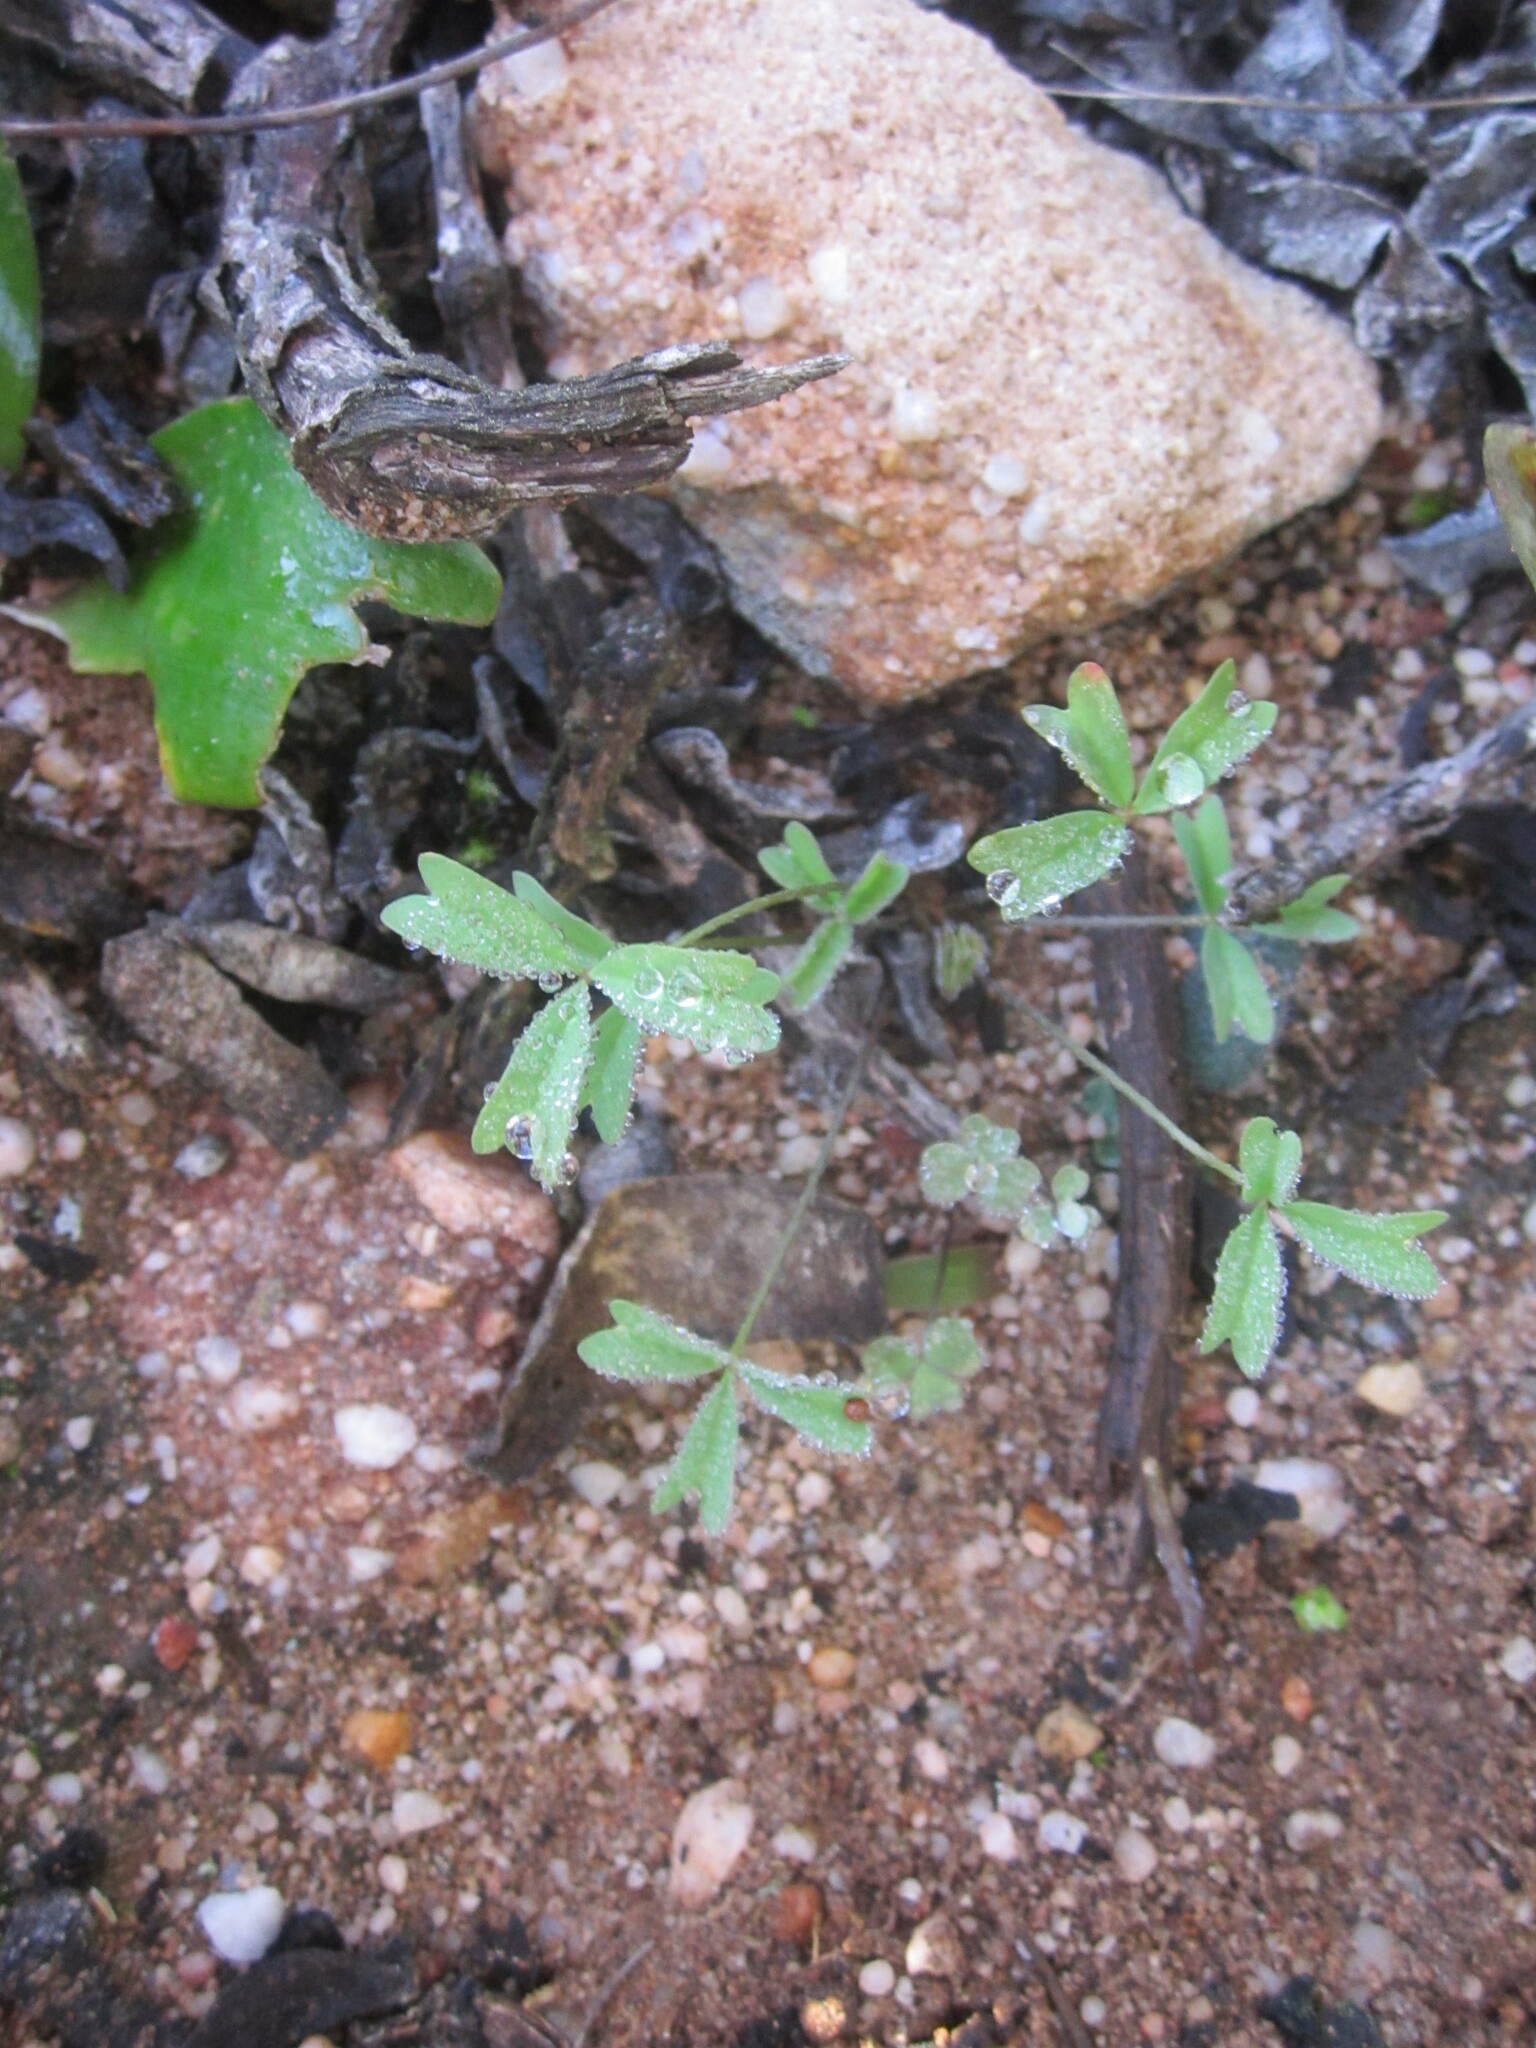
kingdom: Plantae
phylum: Tracheophyta
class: Magnoliopsida
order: Oxalidales
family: Oxalidaceae
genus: Oxalis
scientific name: Oxalis obtusa
